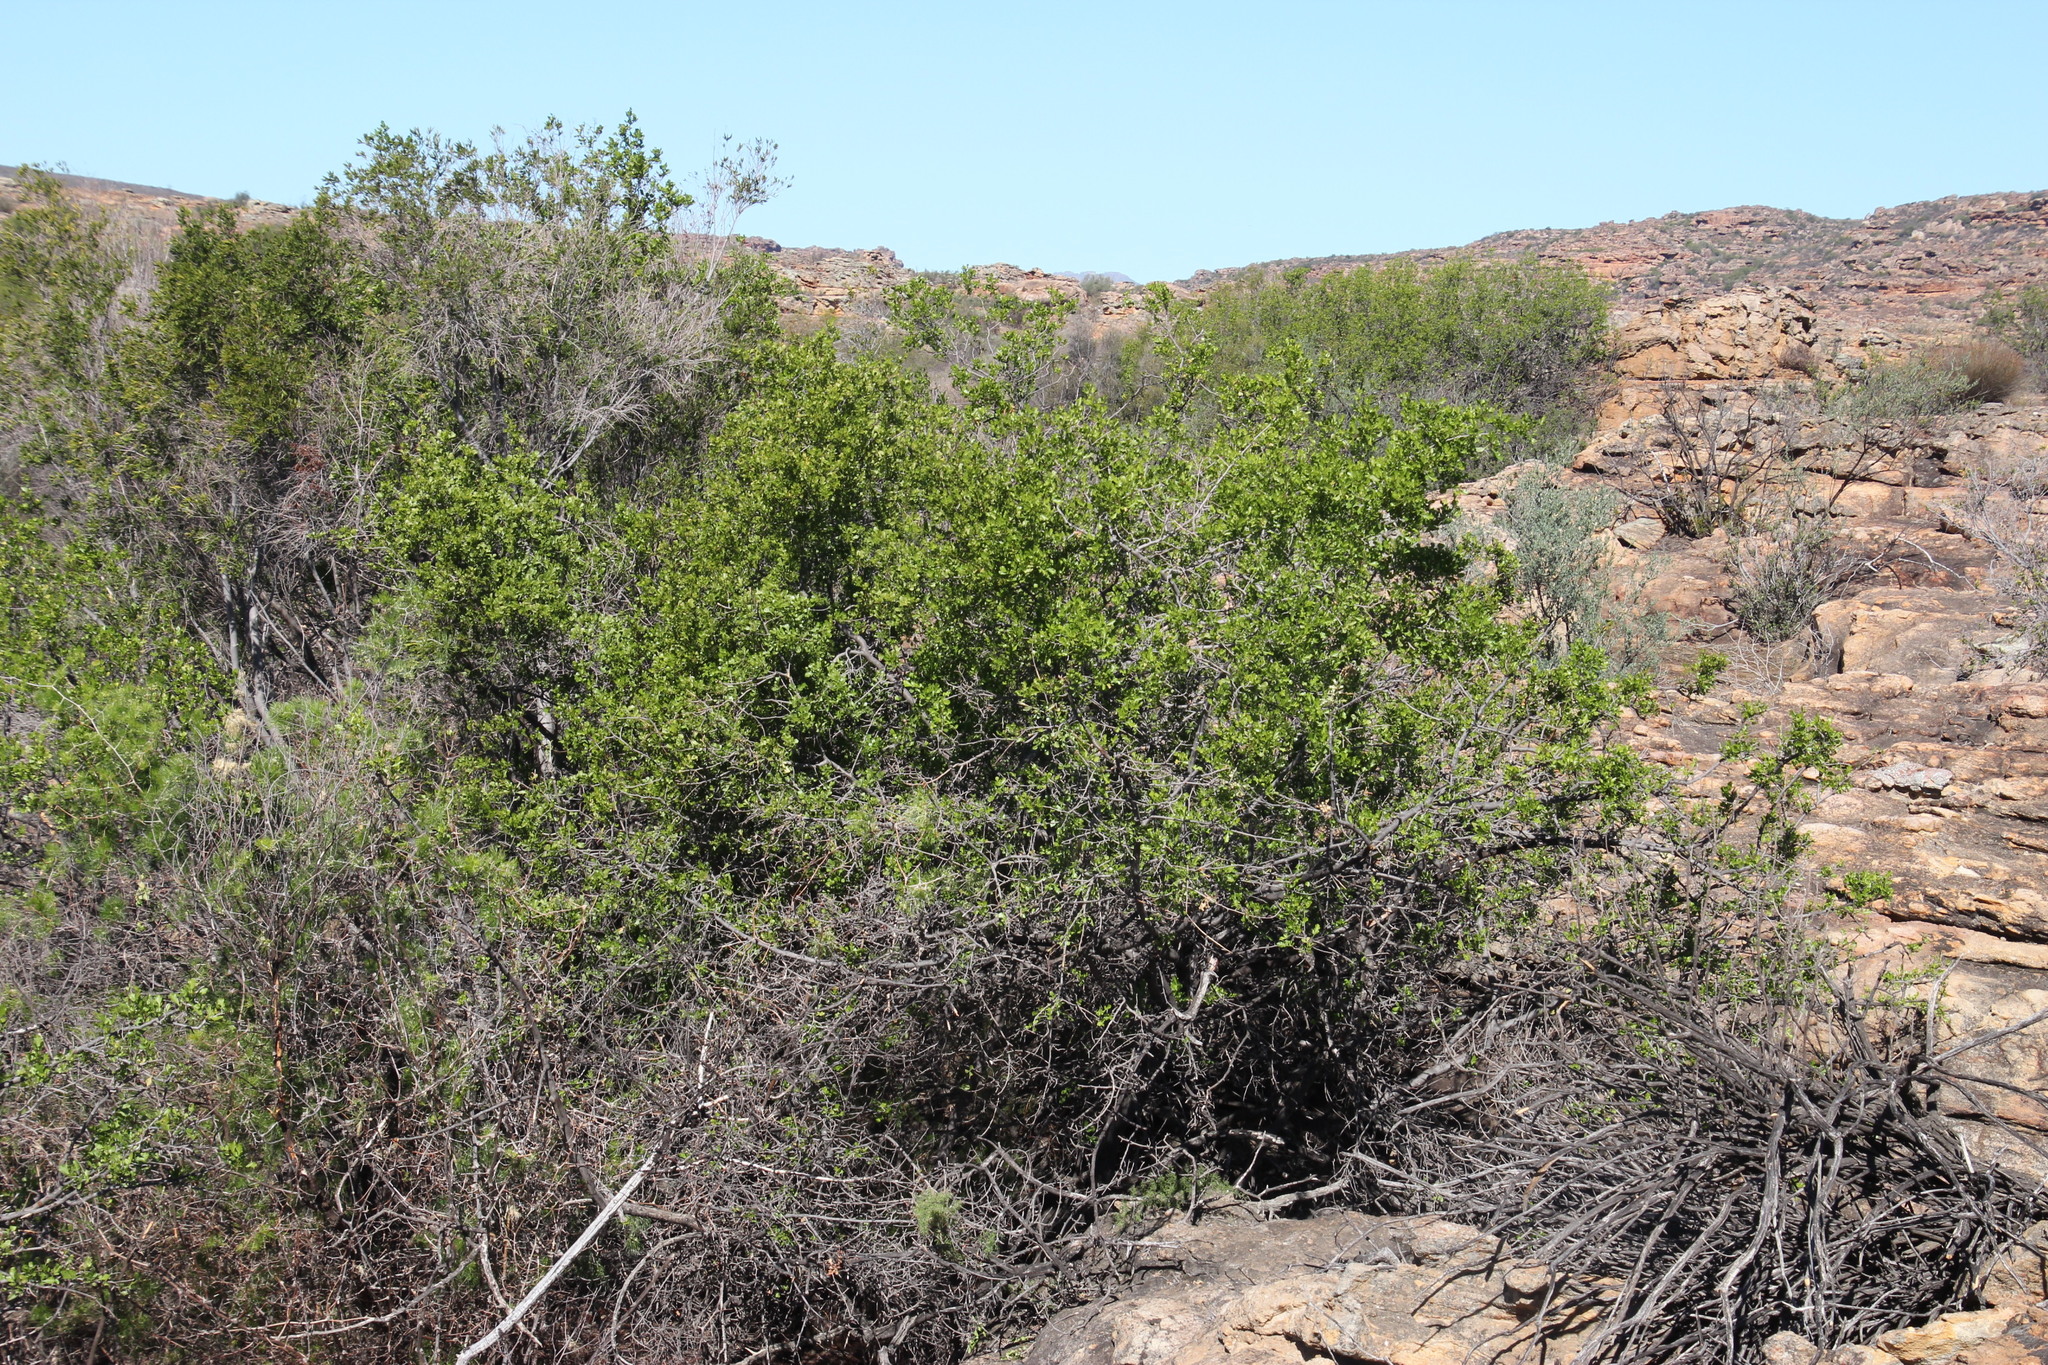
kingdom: Plantae
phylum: Tracheophyta
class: Magnoliopsida
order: Sapindales
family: Anacardiaceae
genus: Searsia
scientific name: Searsia undulata
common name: Namaqua kunibush
